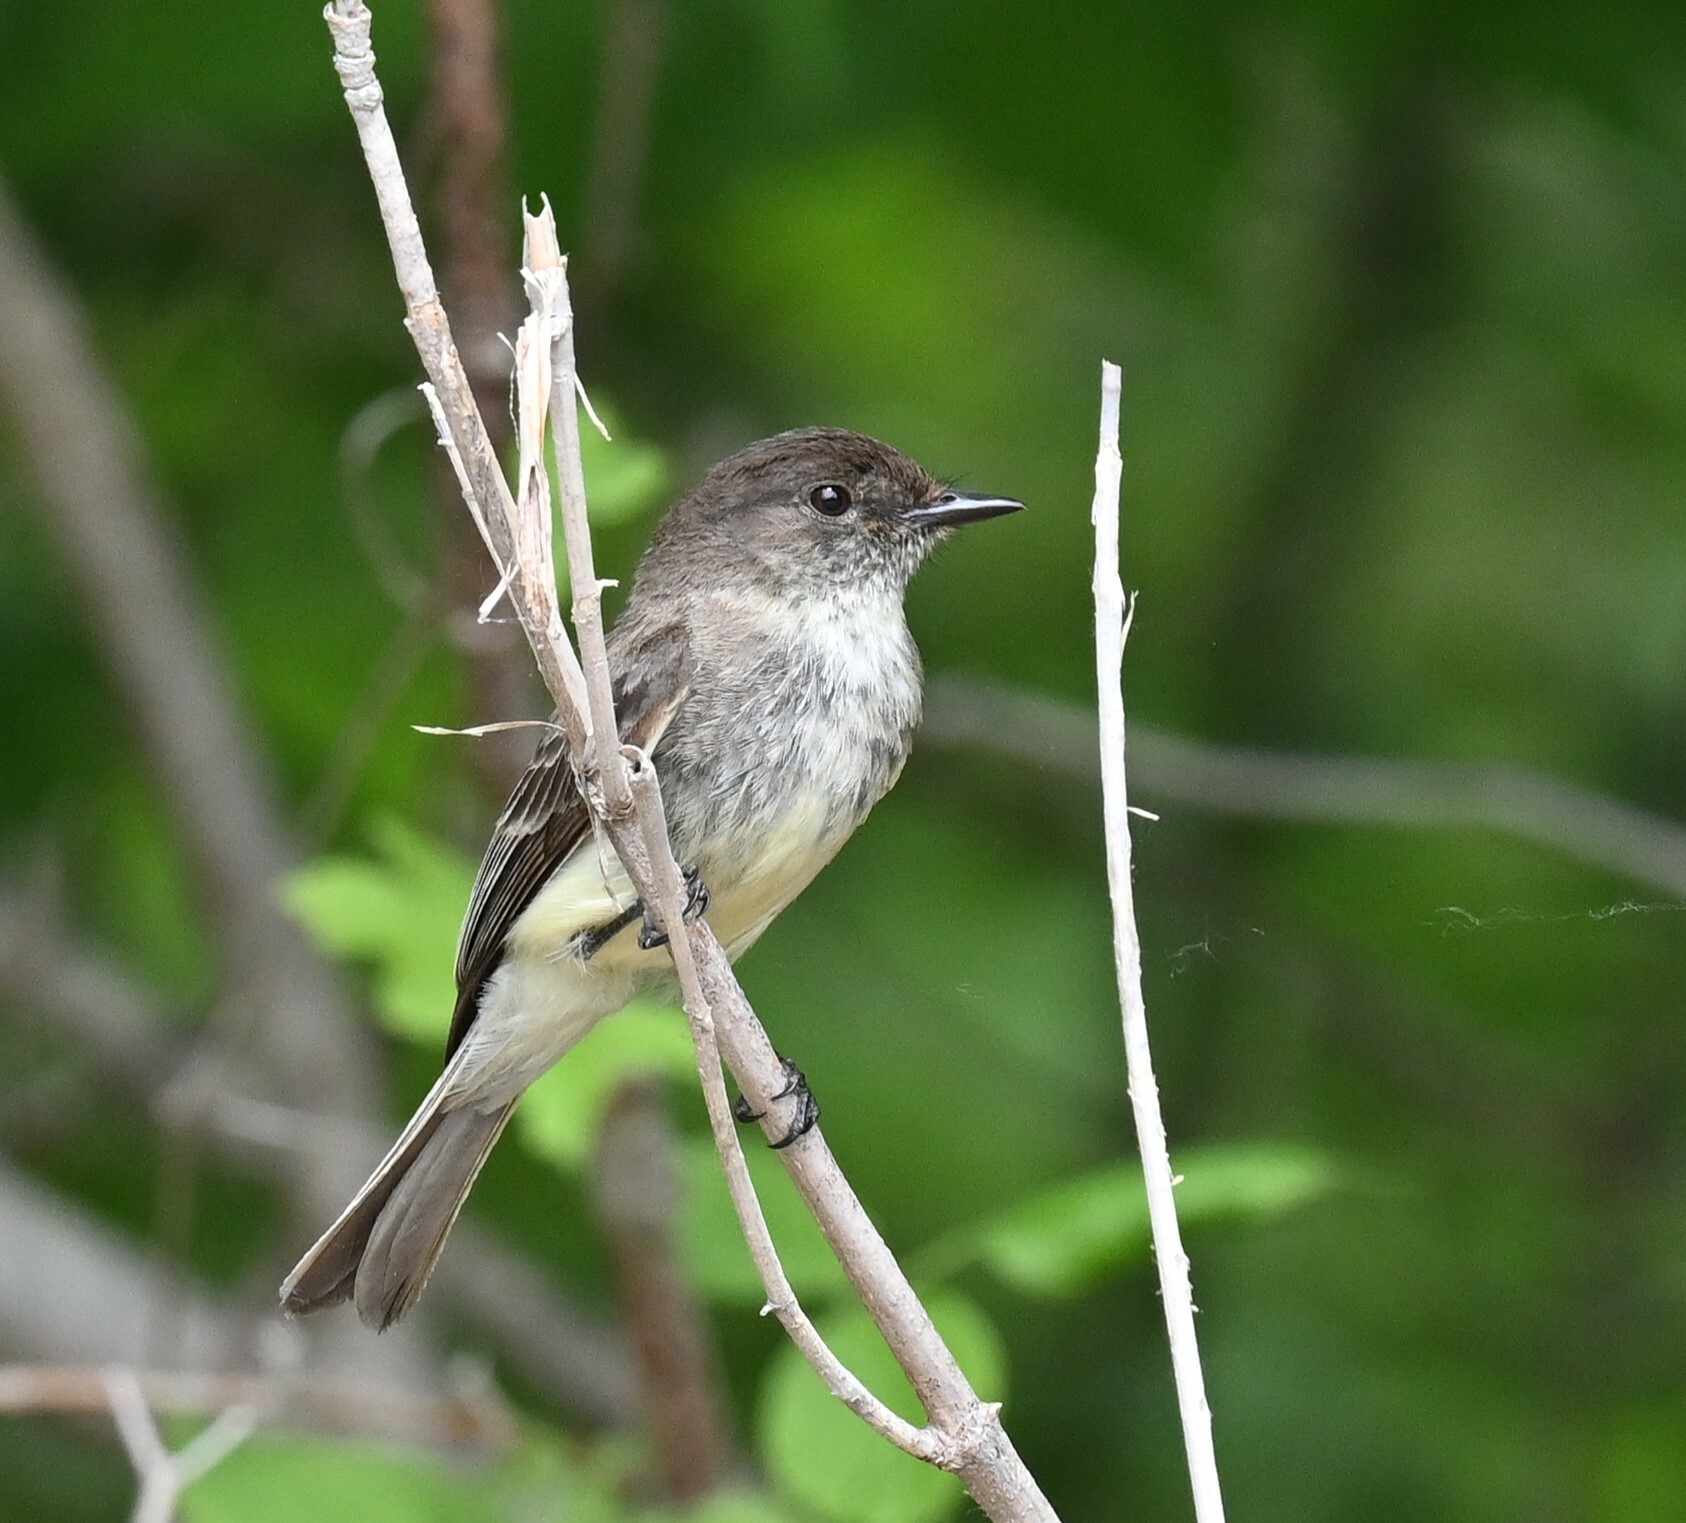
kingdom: Animalia
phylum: Chordata
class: Aves
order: Passeriformes
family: Tyrannidae
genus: Sayornis
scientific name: Sayornis phoebe
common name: Eastern phoebe
